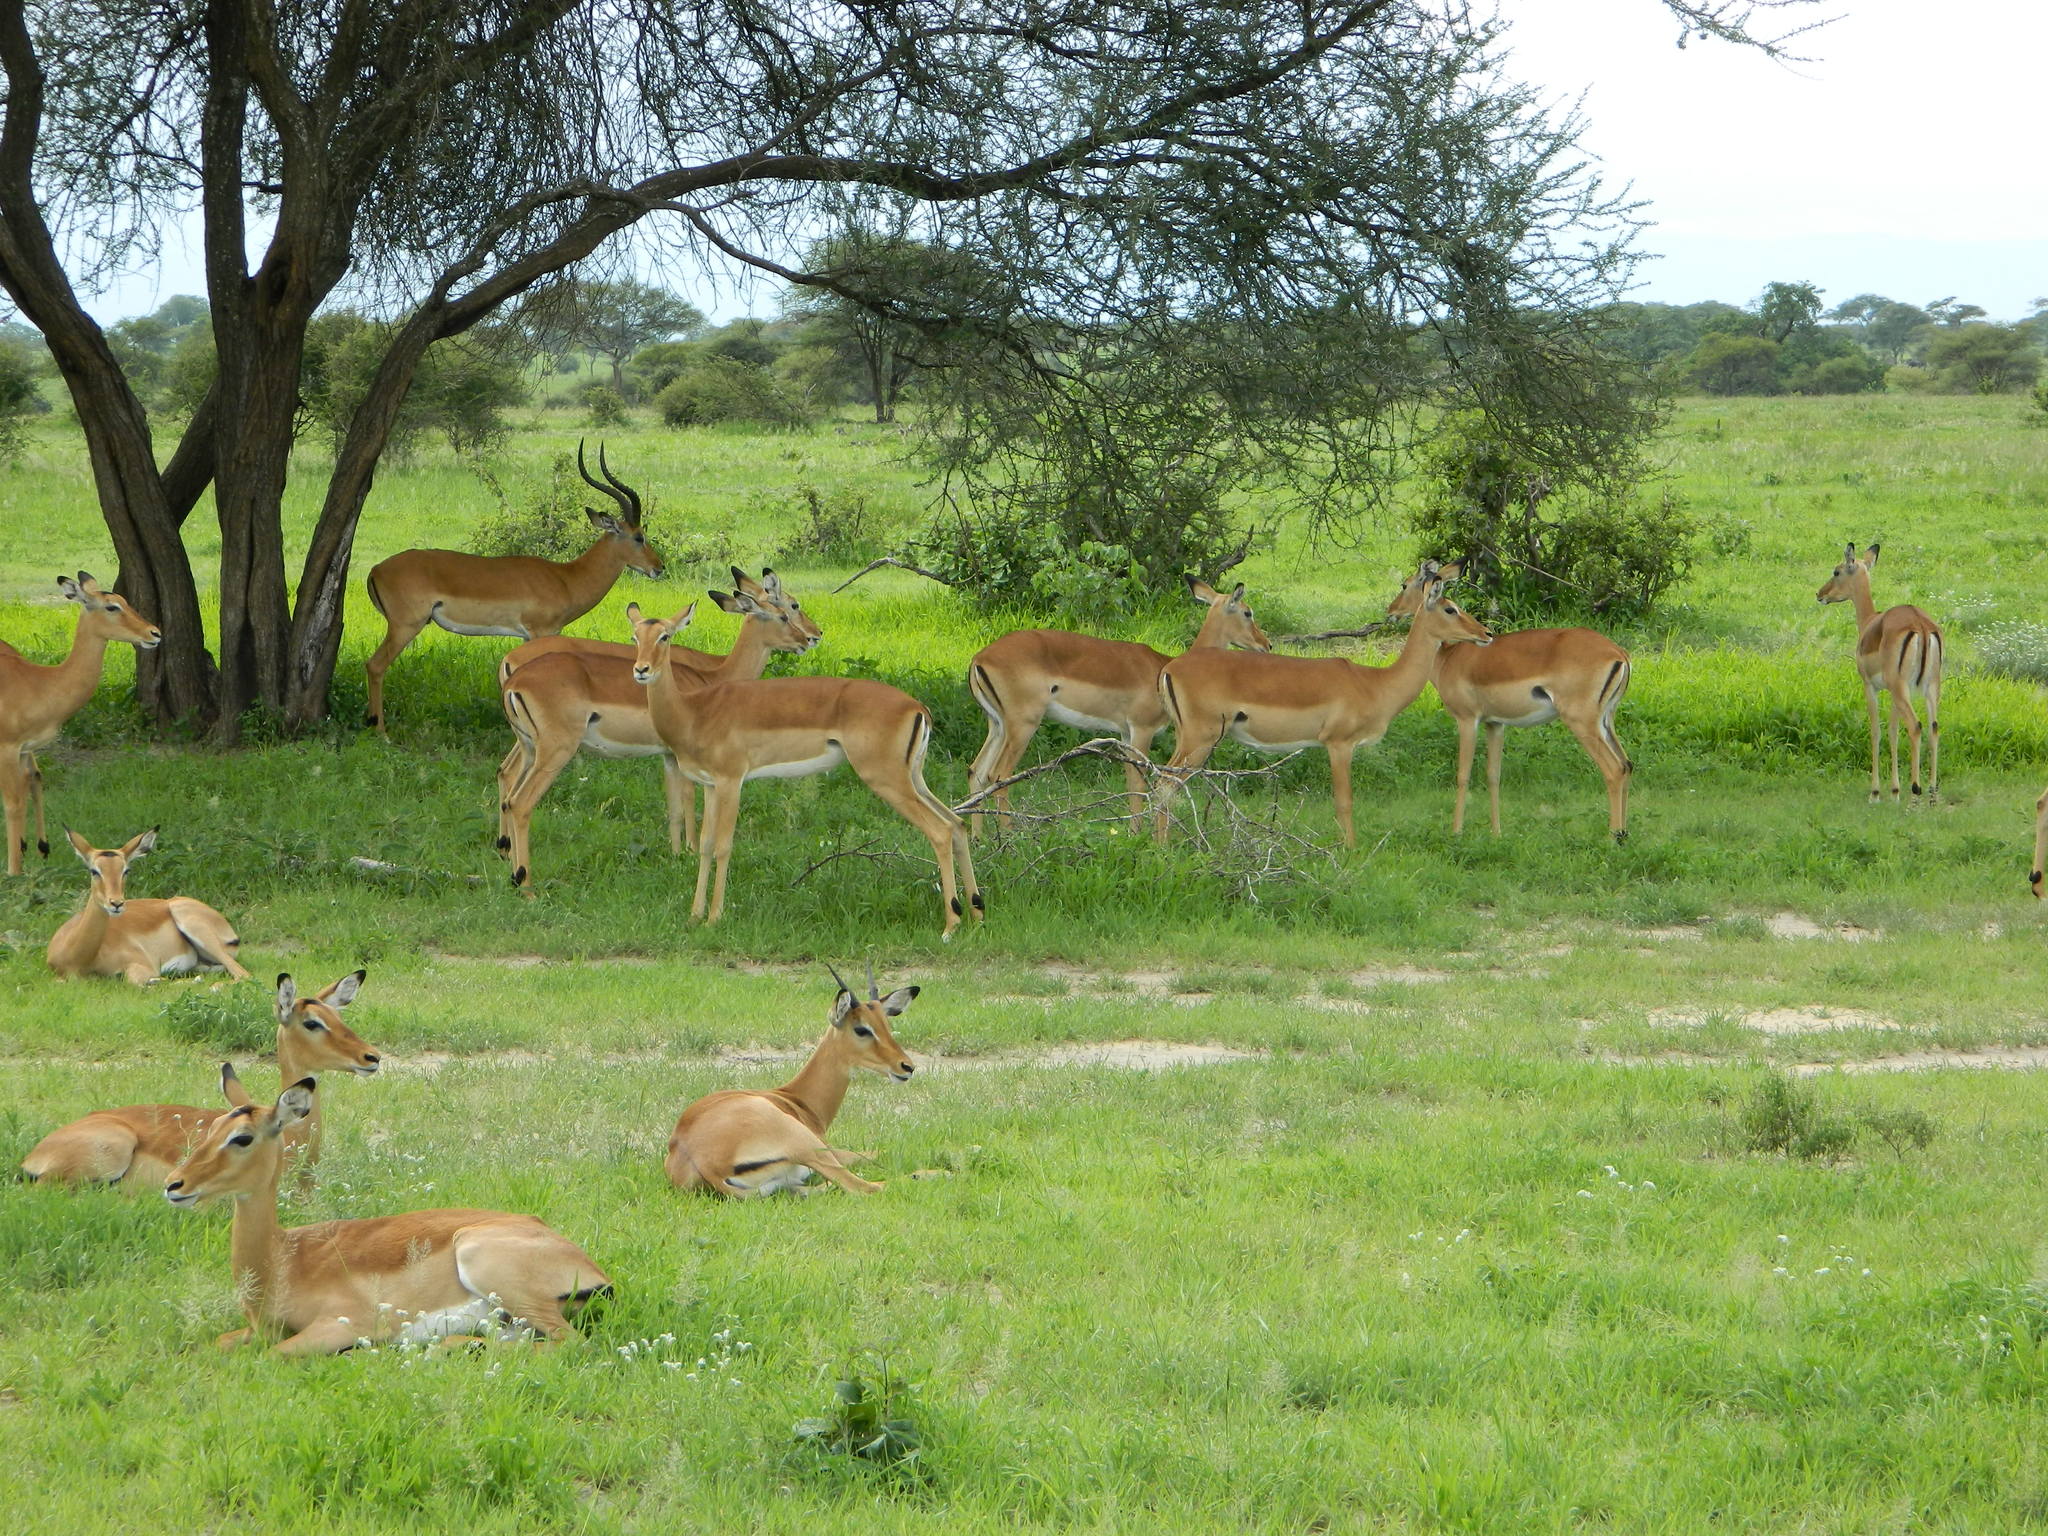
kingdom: Animalia
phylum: Chordata
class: Mammalia
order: Artiodactyla
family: Bovidae
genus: Aepyceros
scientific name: Aepyceros melampus
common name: Impala
